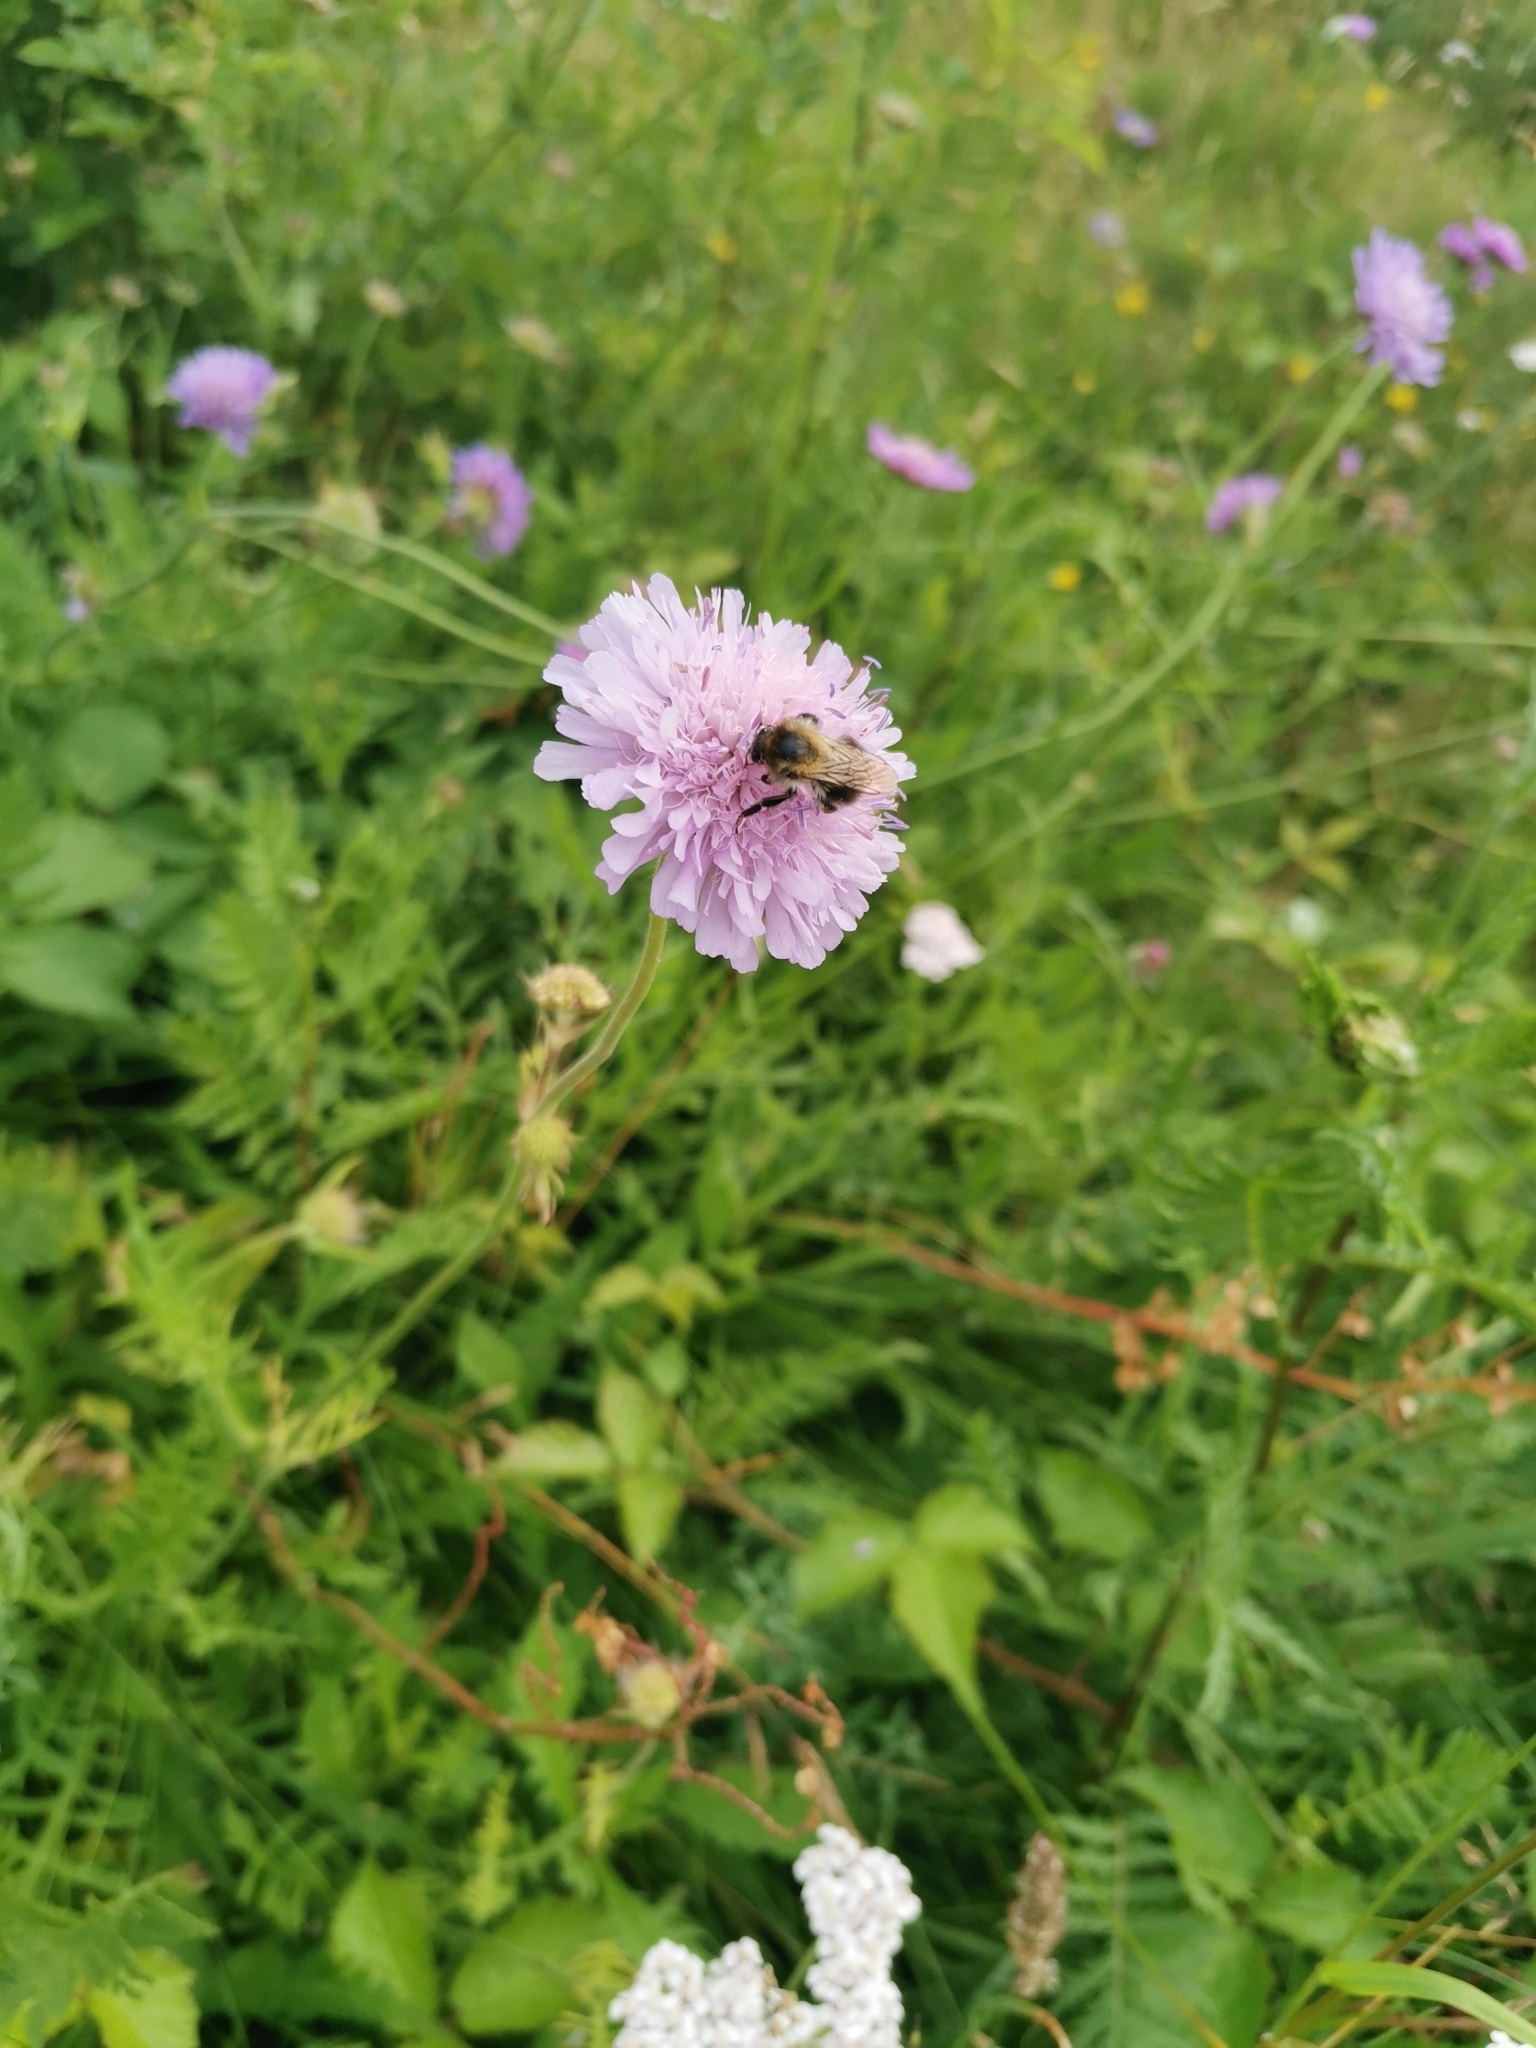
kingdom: Animalia
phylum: Arthropoda
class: Insecta
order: Hymenoptera
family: Apidae
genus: Bombus
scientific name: Bombus pascuorum
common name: Common carder bee
